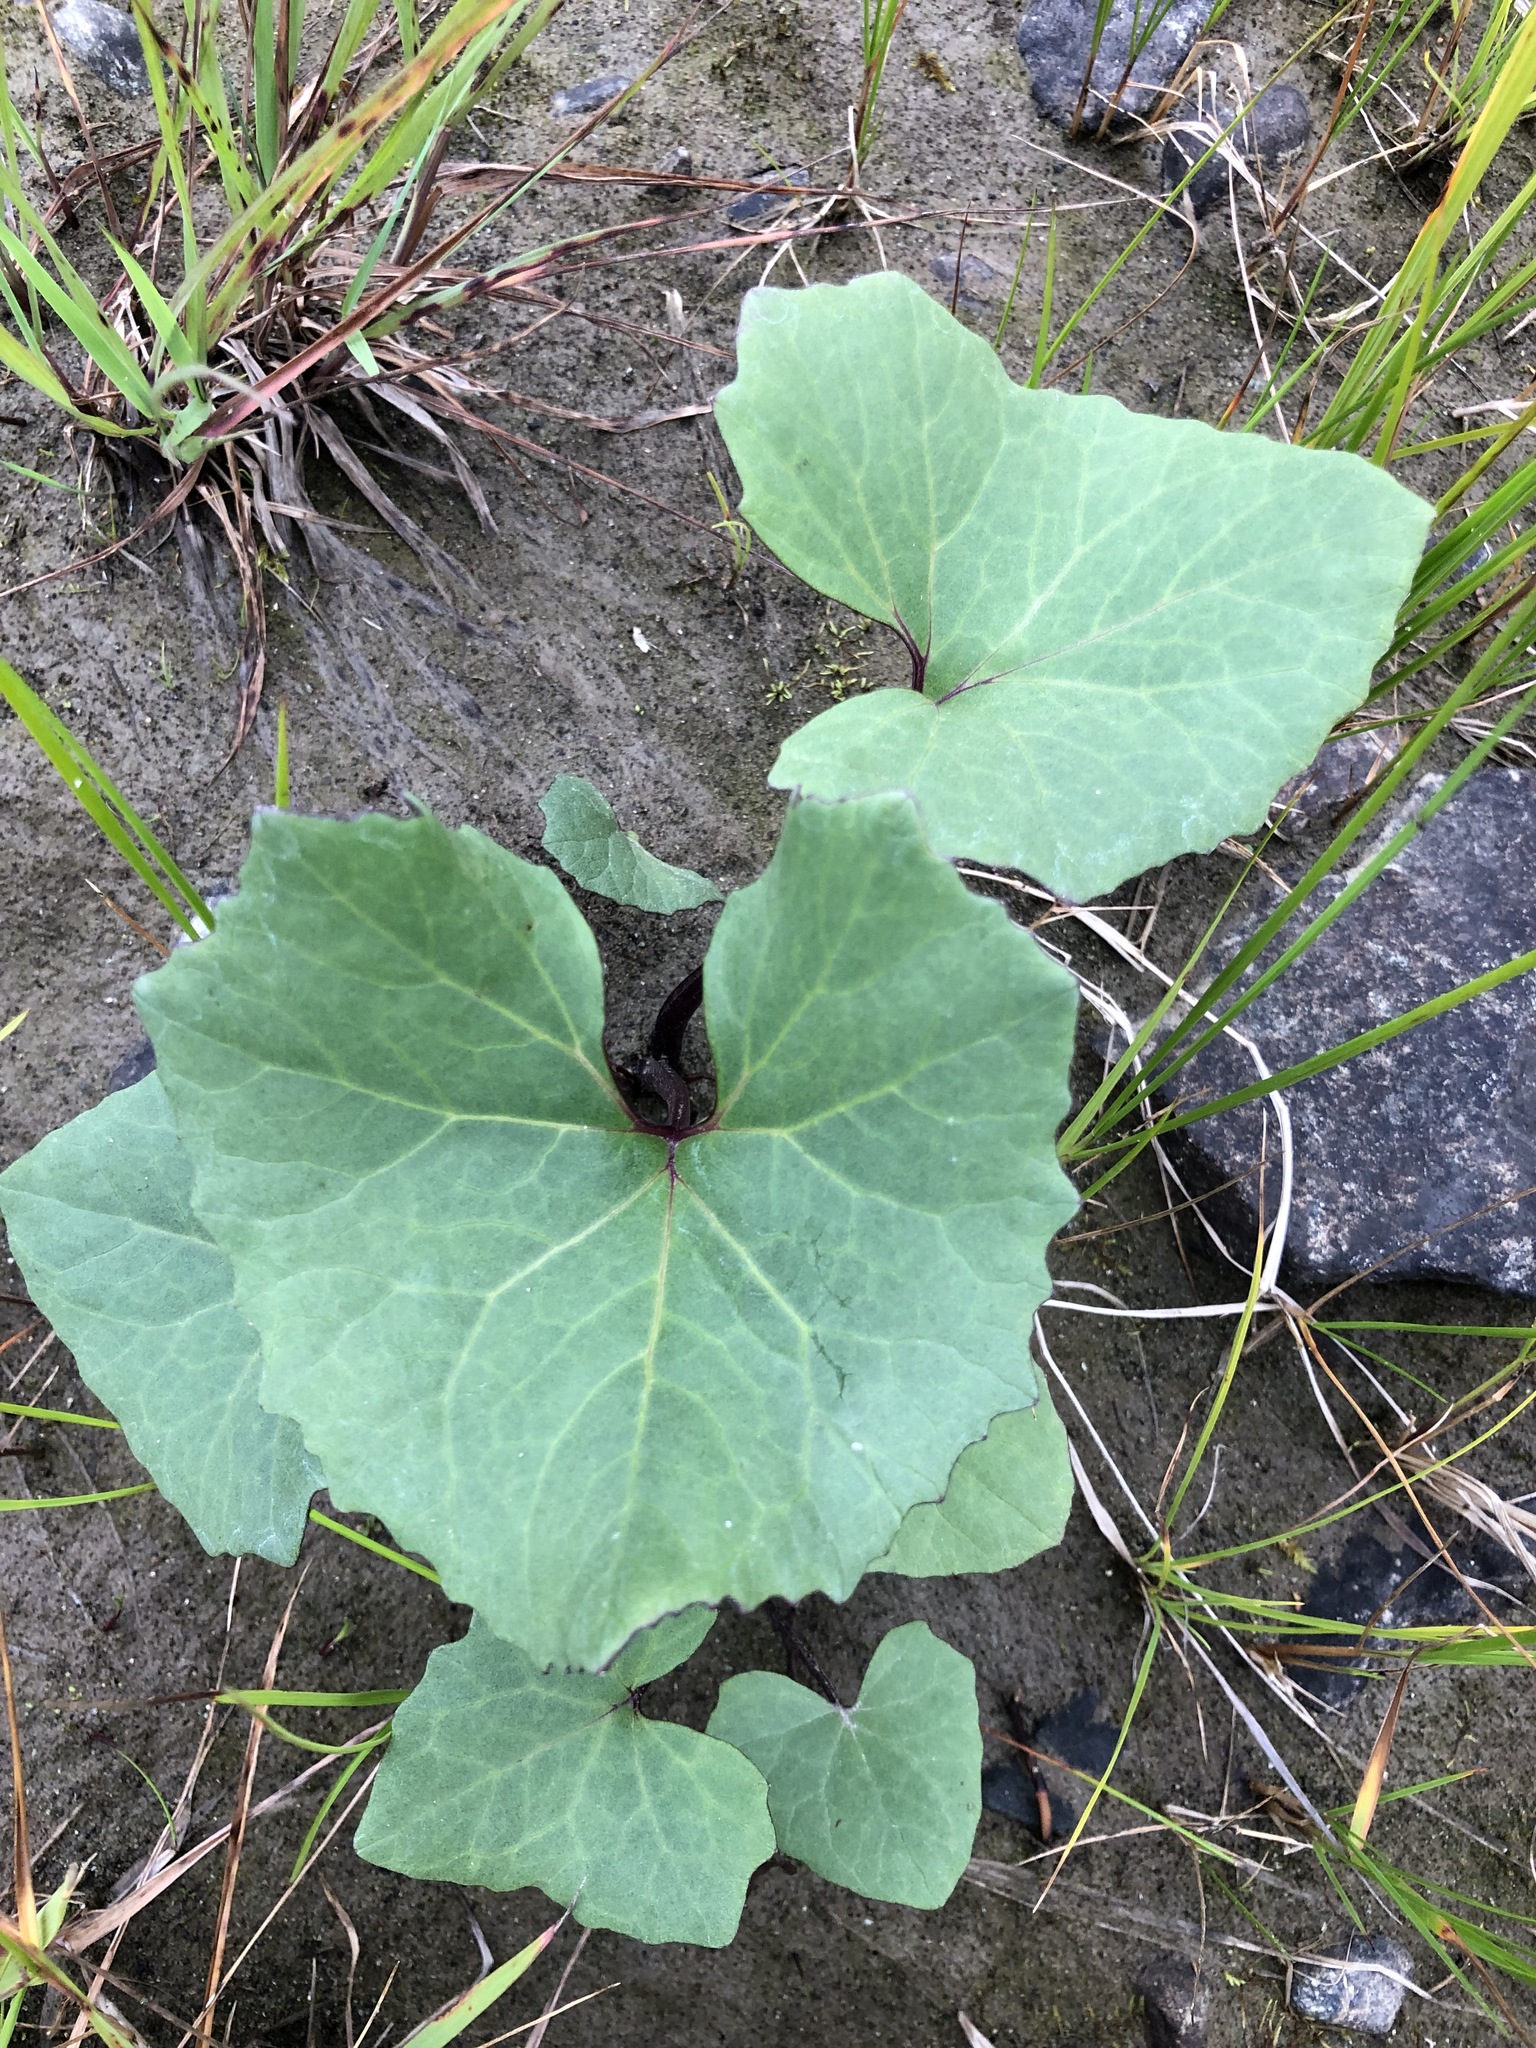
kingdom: Plantae
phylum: Tracheophyta
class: Magnoliopsida
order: Asterales
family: Asteraceae
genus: Petasites
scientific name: Petasites radiatus
